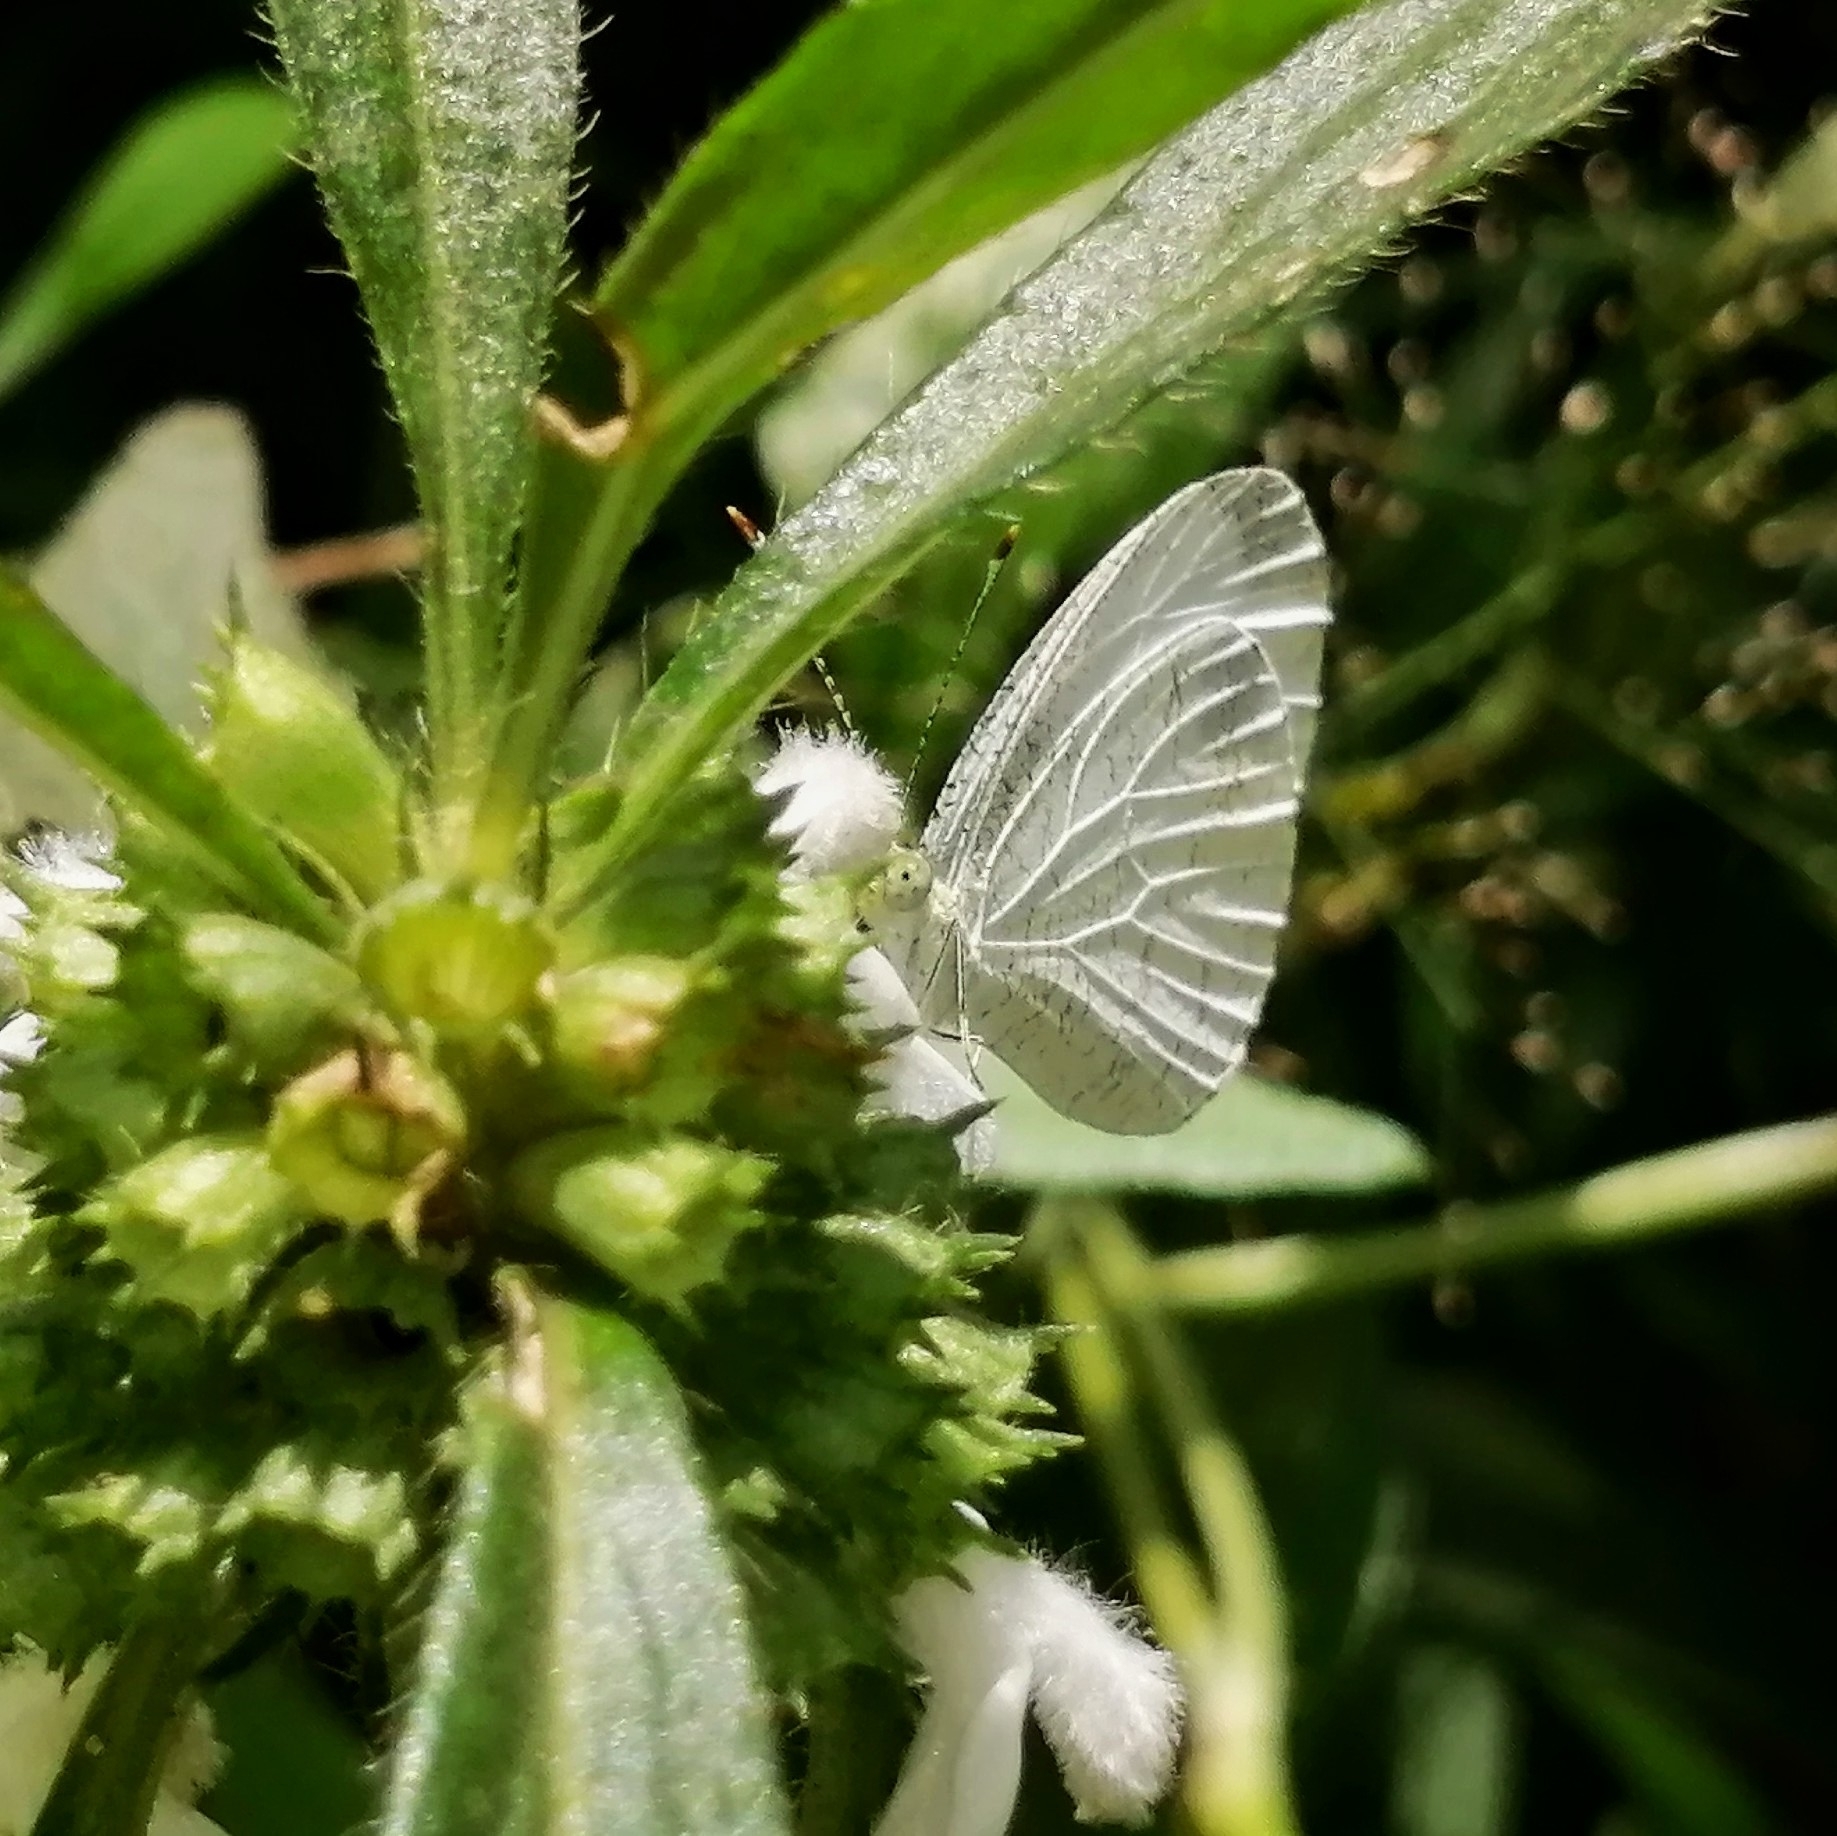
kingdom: Animalia
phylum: Arthropoda
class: Insecta
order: Lepidoptera
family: Pieridae
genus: Leptosia
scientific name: Leptosia nina
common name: Psyche
